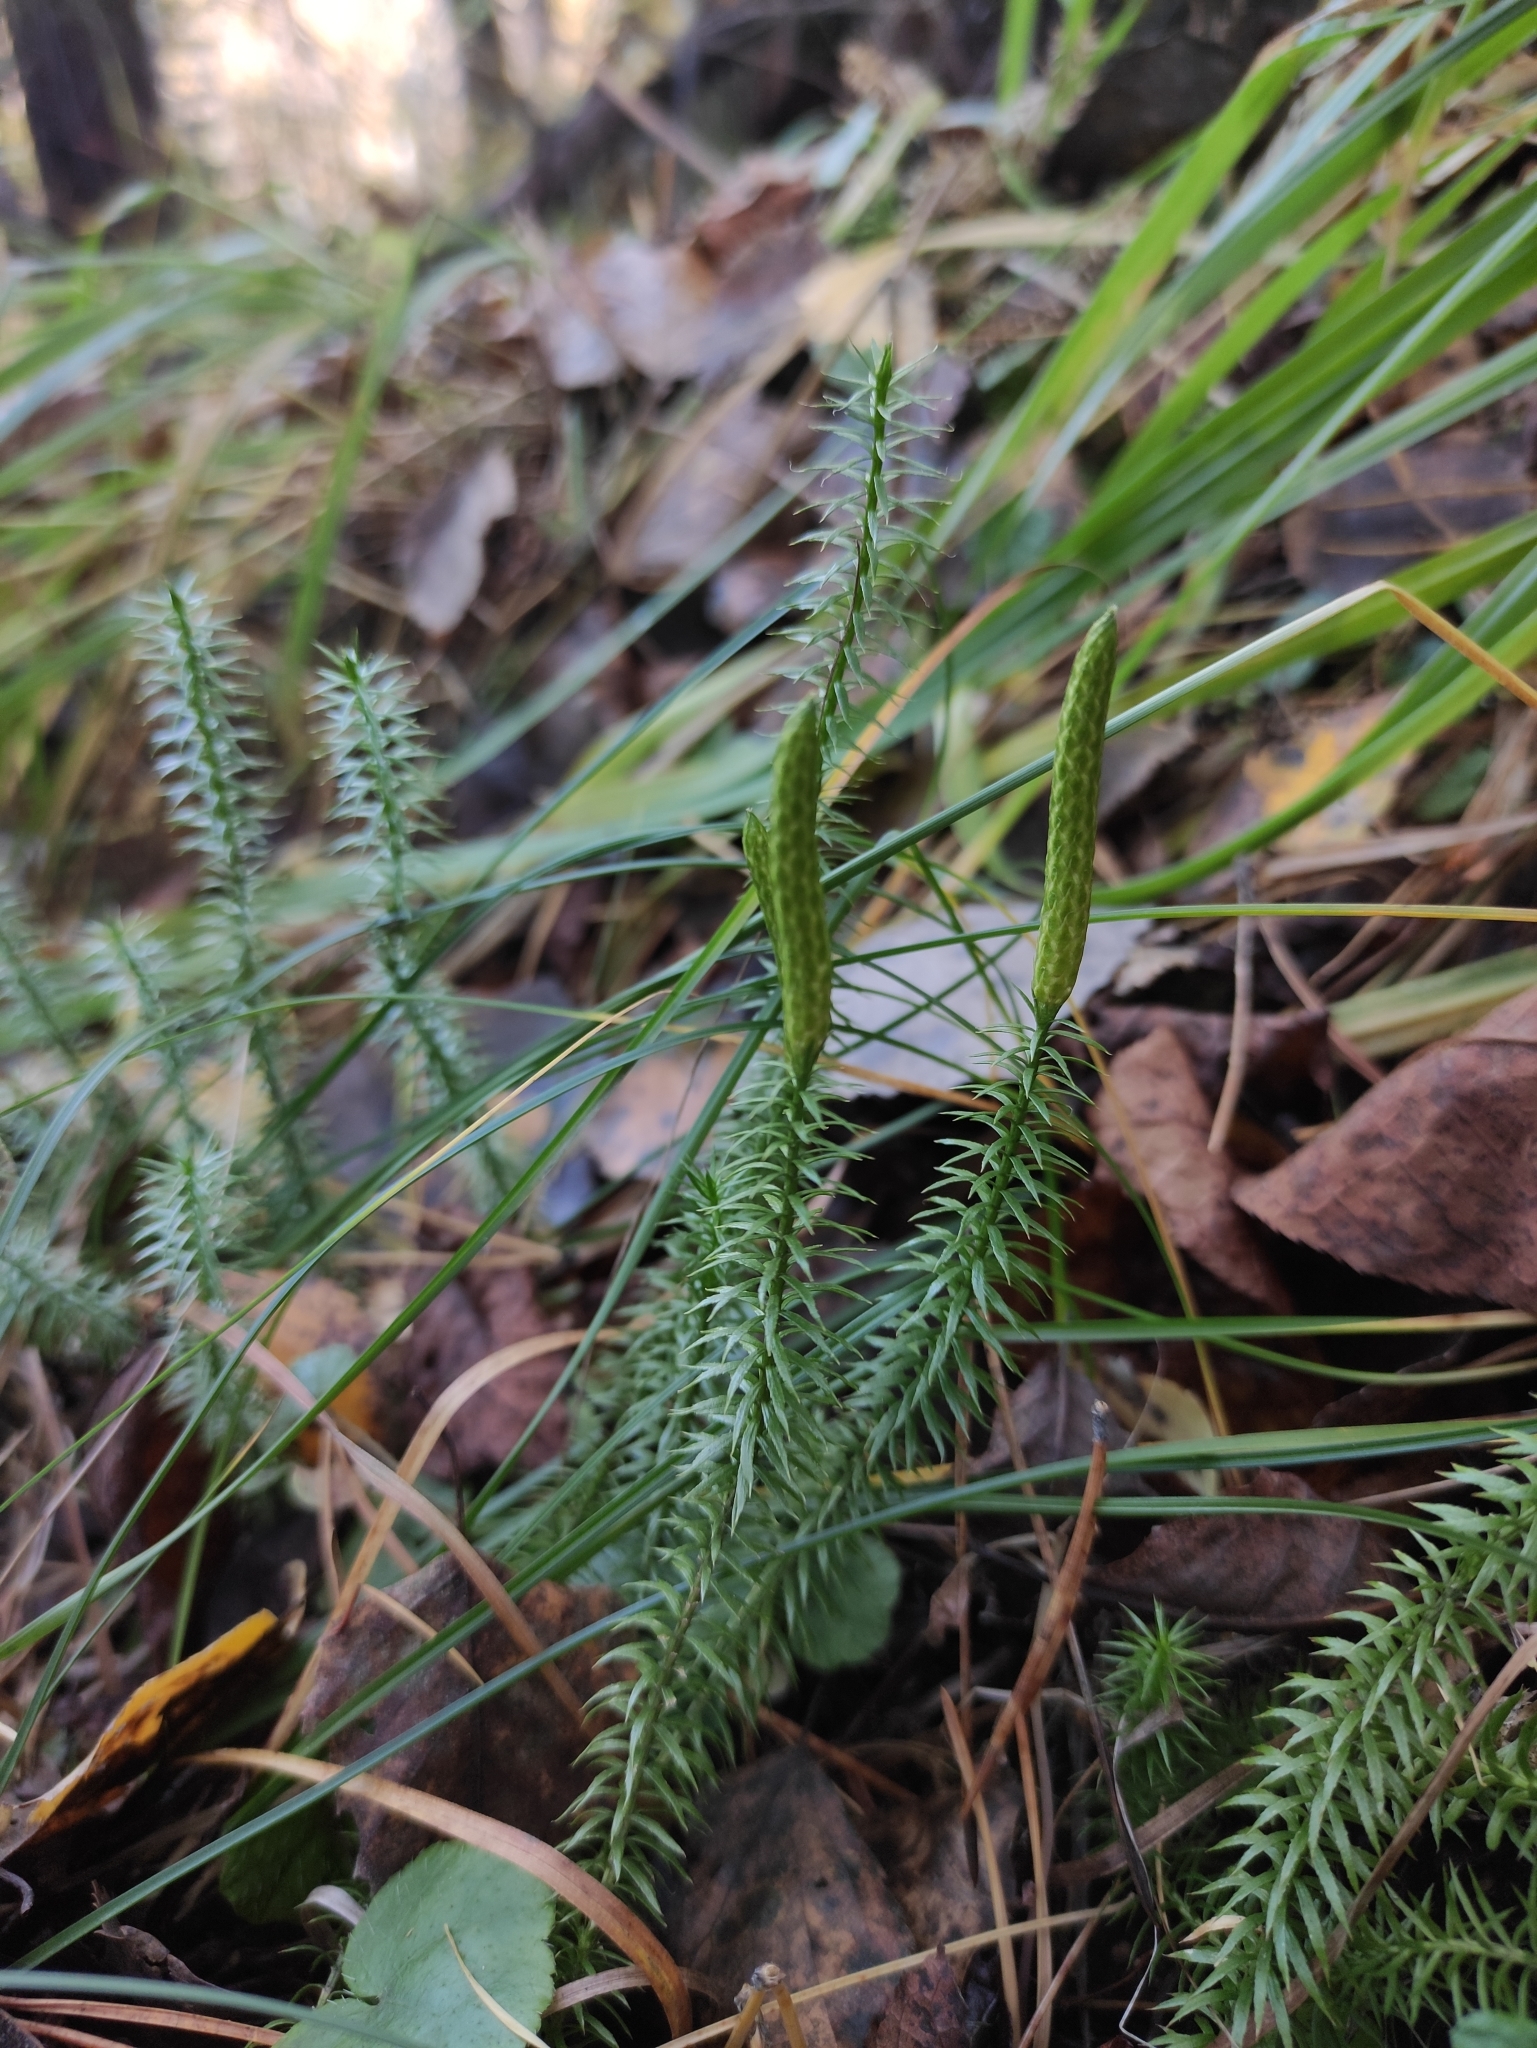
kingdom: Plantae
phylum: Tracheophyta
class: Lycopodiopsida
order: Lycopodiales
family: Lycopodiaceae
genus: Spinulum
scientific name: Spinulum annotinum
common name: Interrupted club-moss
